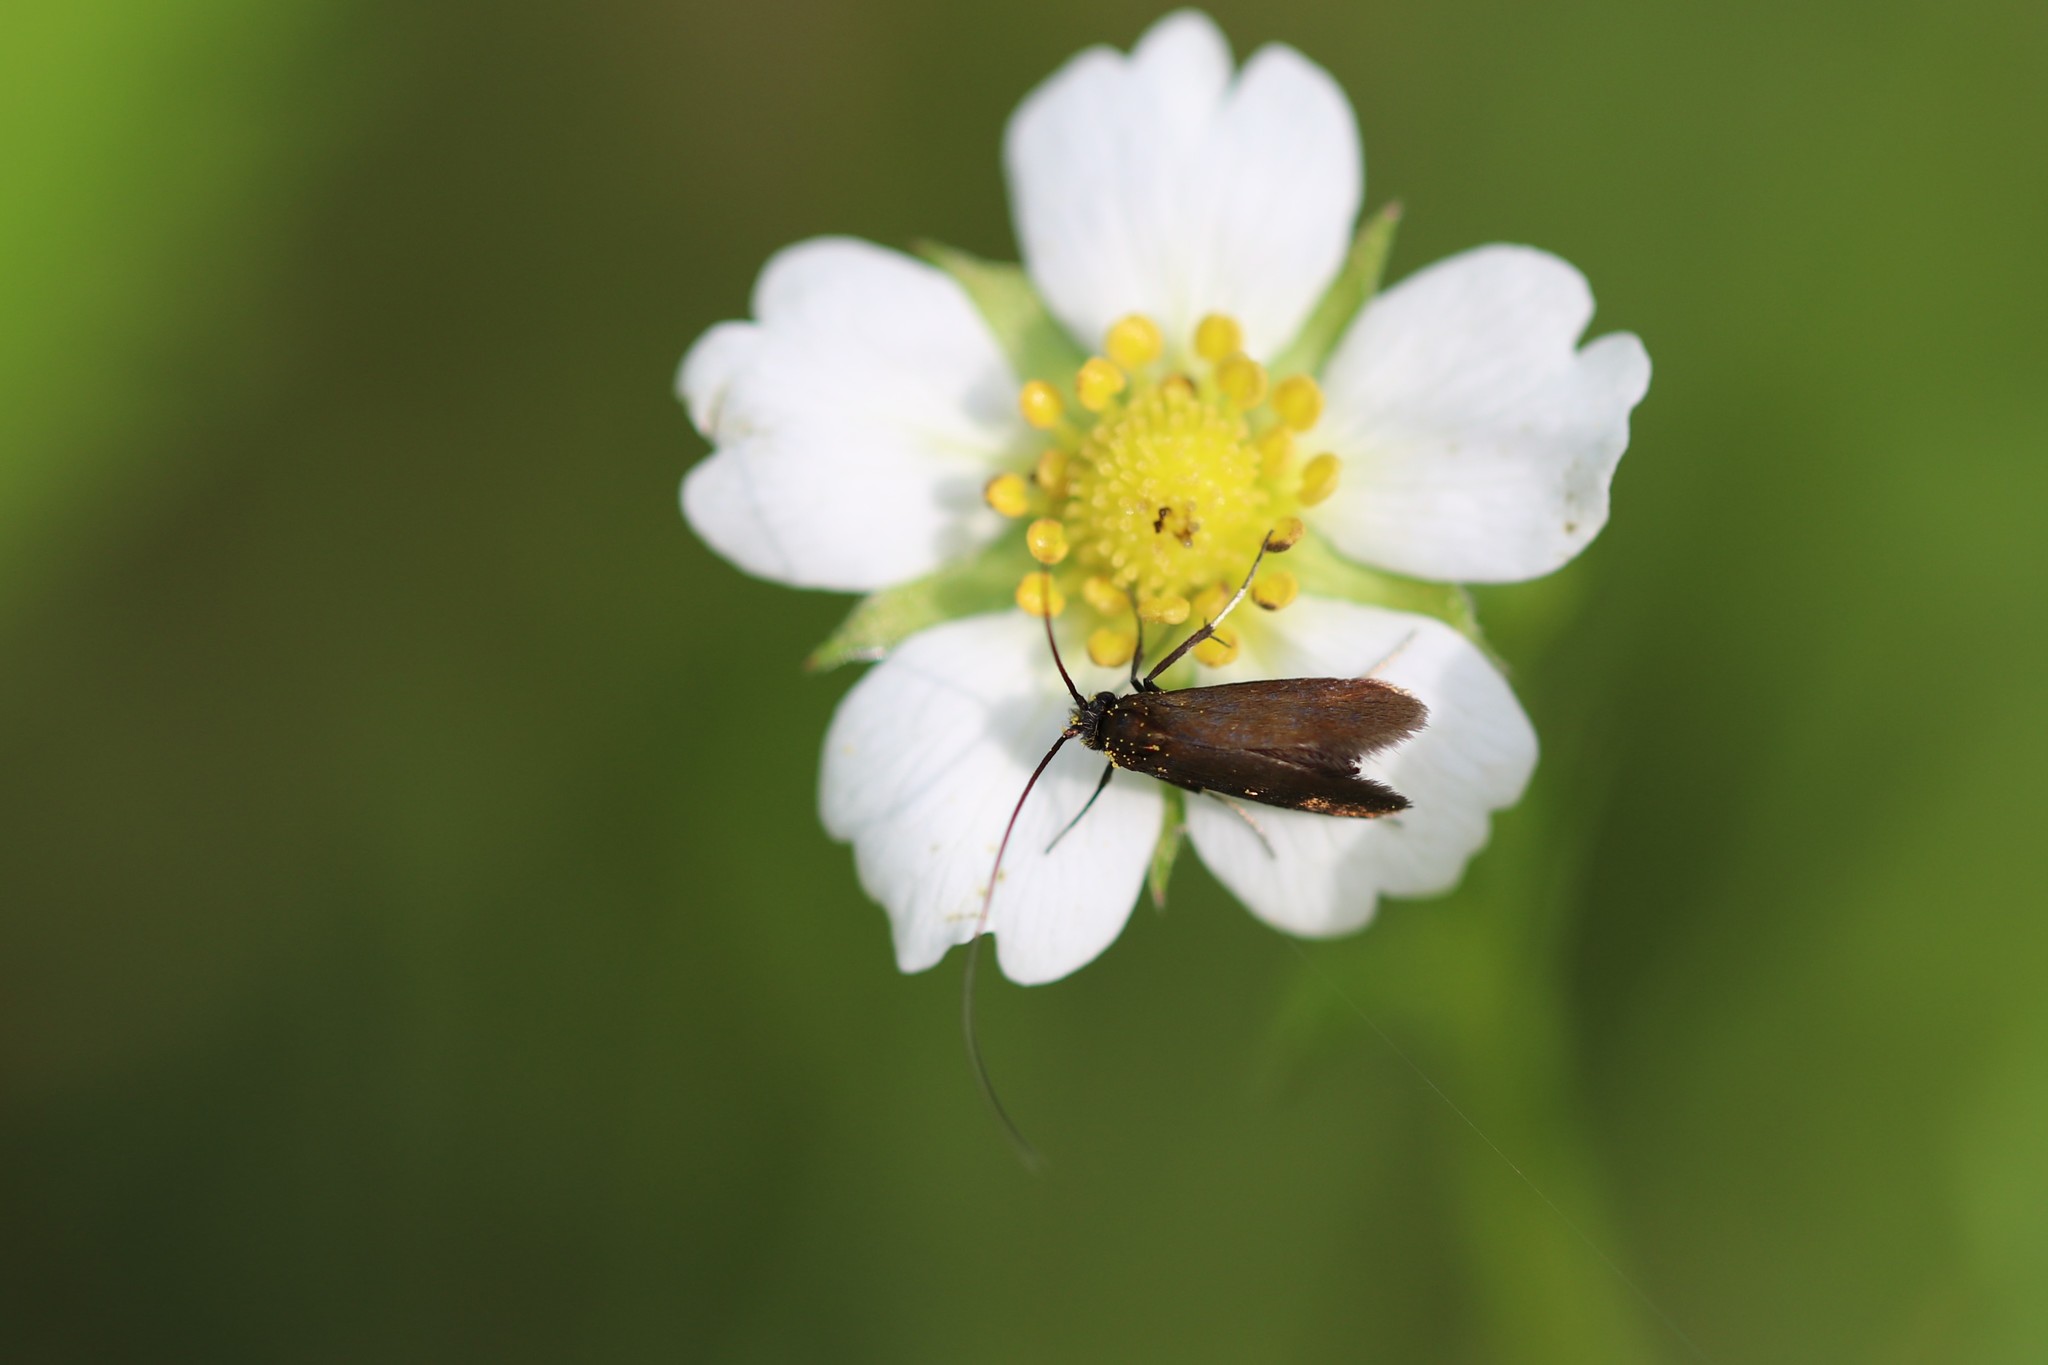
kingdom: Animalia
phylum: Arthropoda
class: Insecta
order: Lepidoptera
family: Adelidae
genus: Cauchas
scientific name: Cauchas rufimitrella
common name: Meadow long-horn
